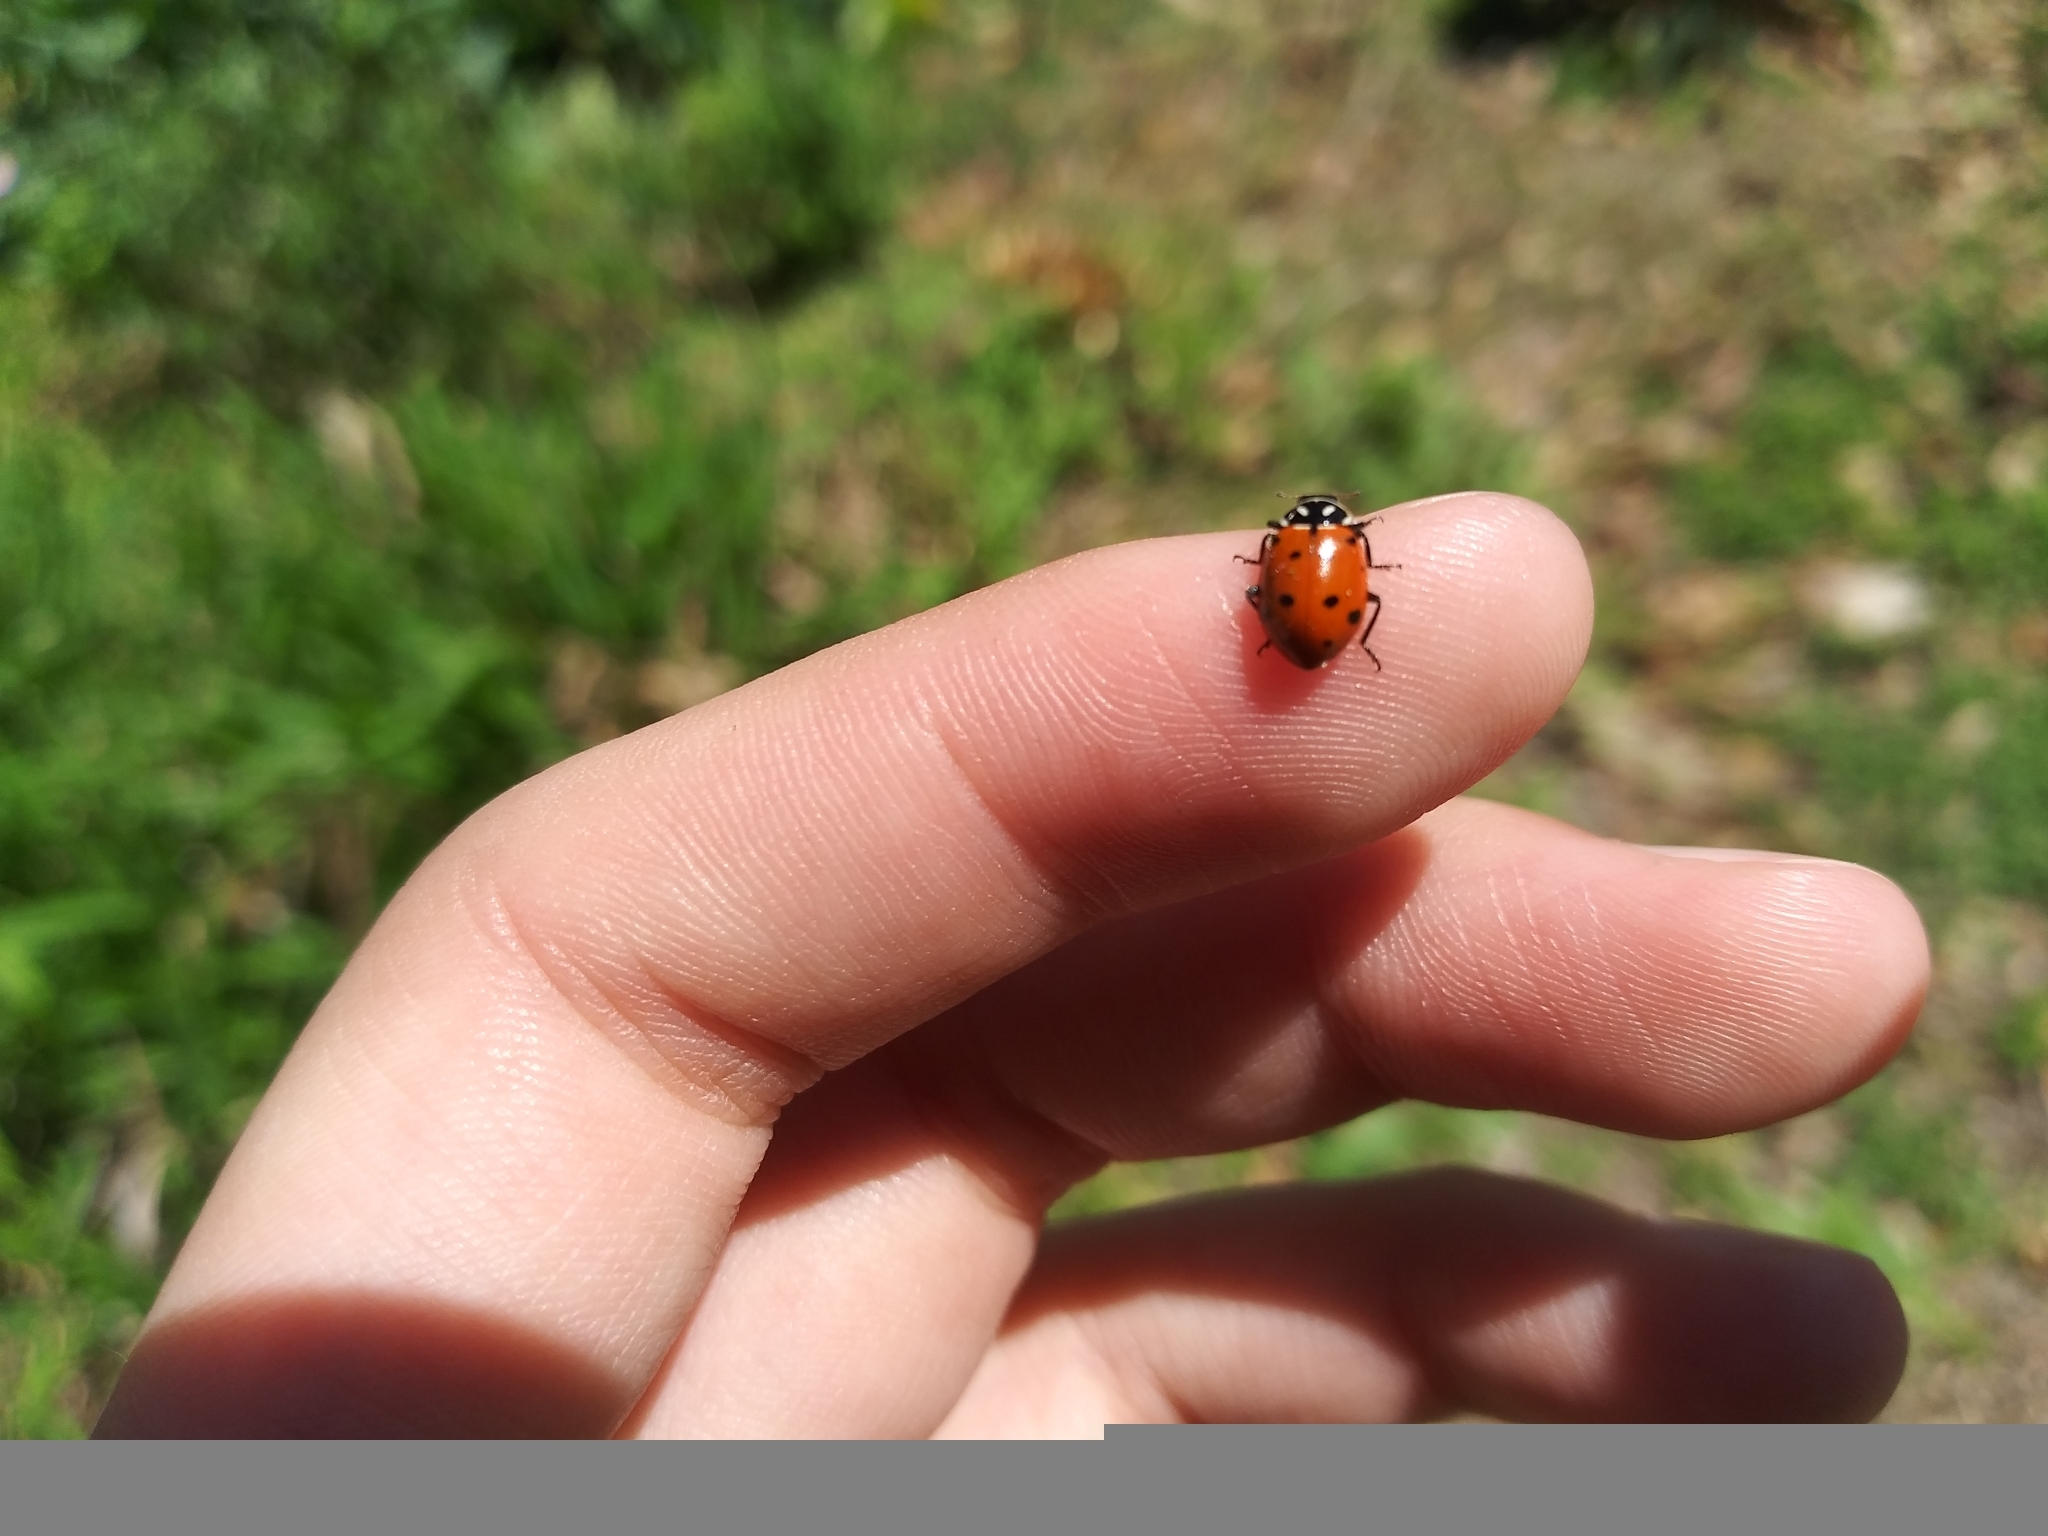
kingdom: Animalia
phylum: Arthropoda
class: Insecta
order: Coleoptera
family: Coccinellidae
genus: Hippodamia
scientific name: Hippodamia convergens
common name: Convergent lady beetle
